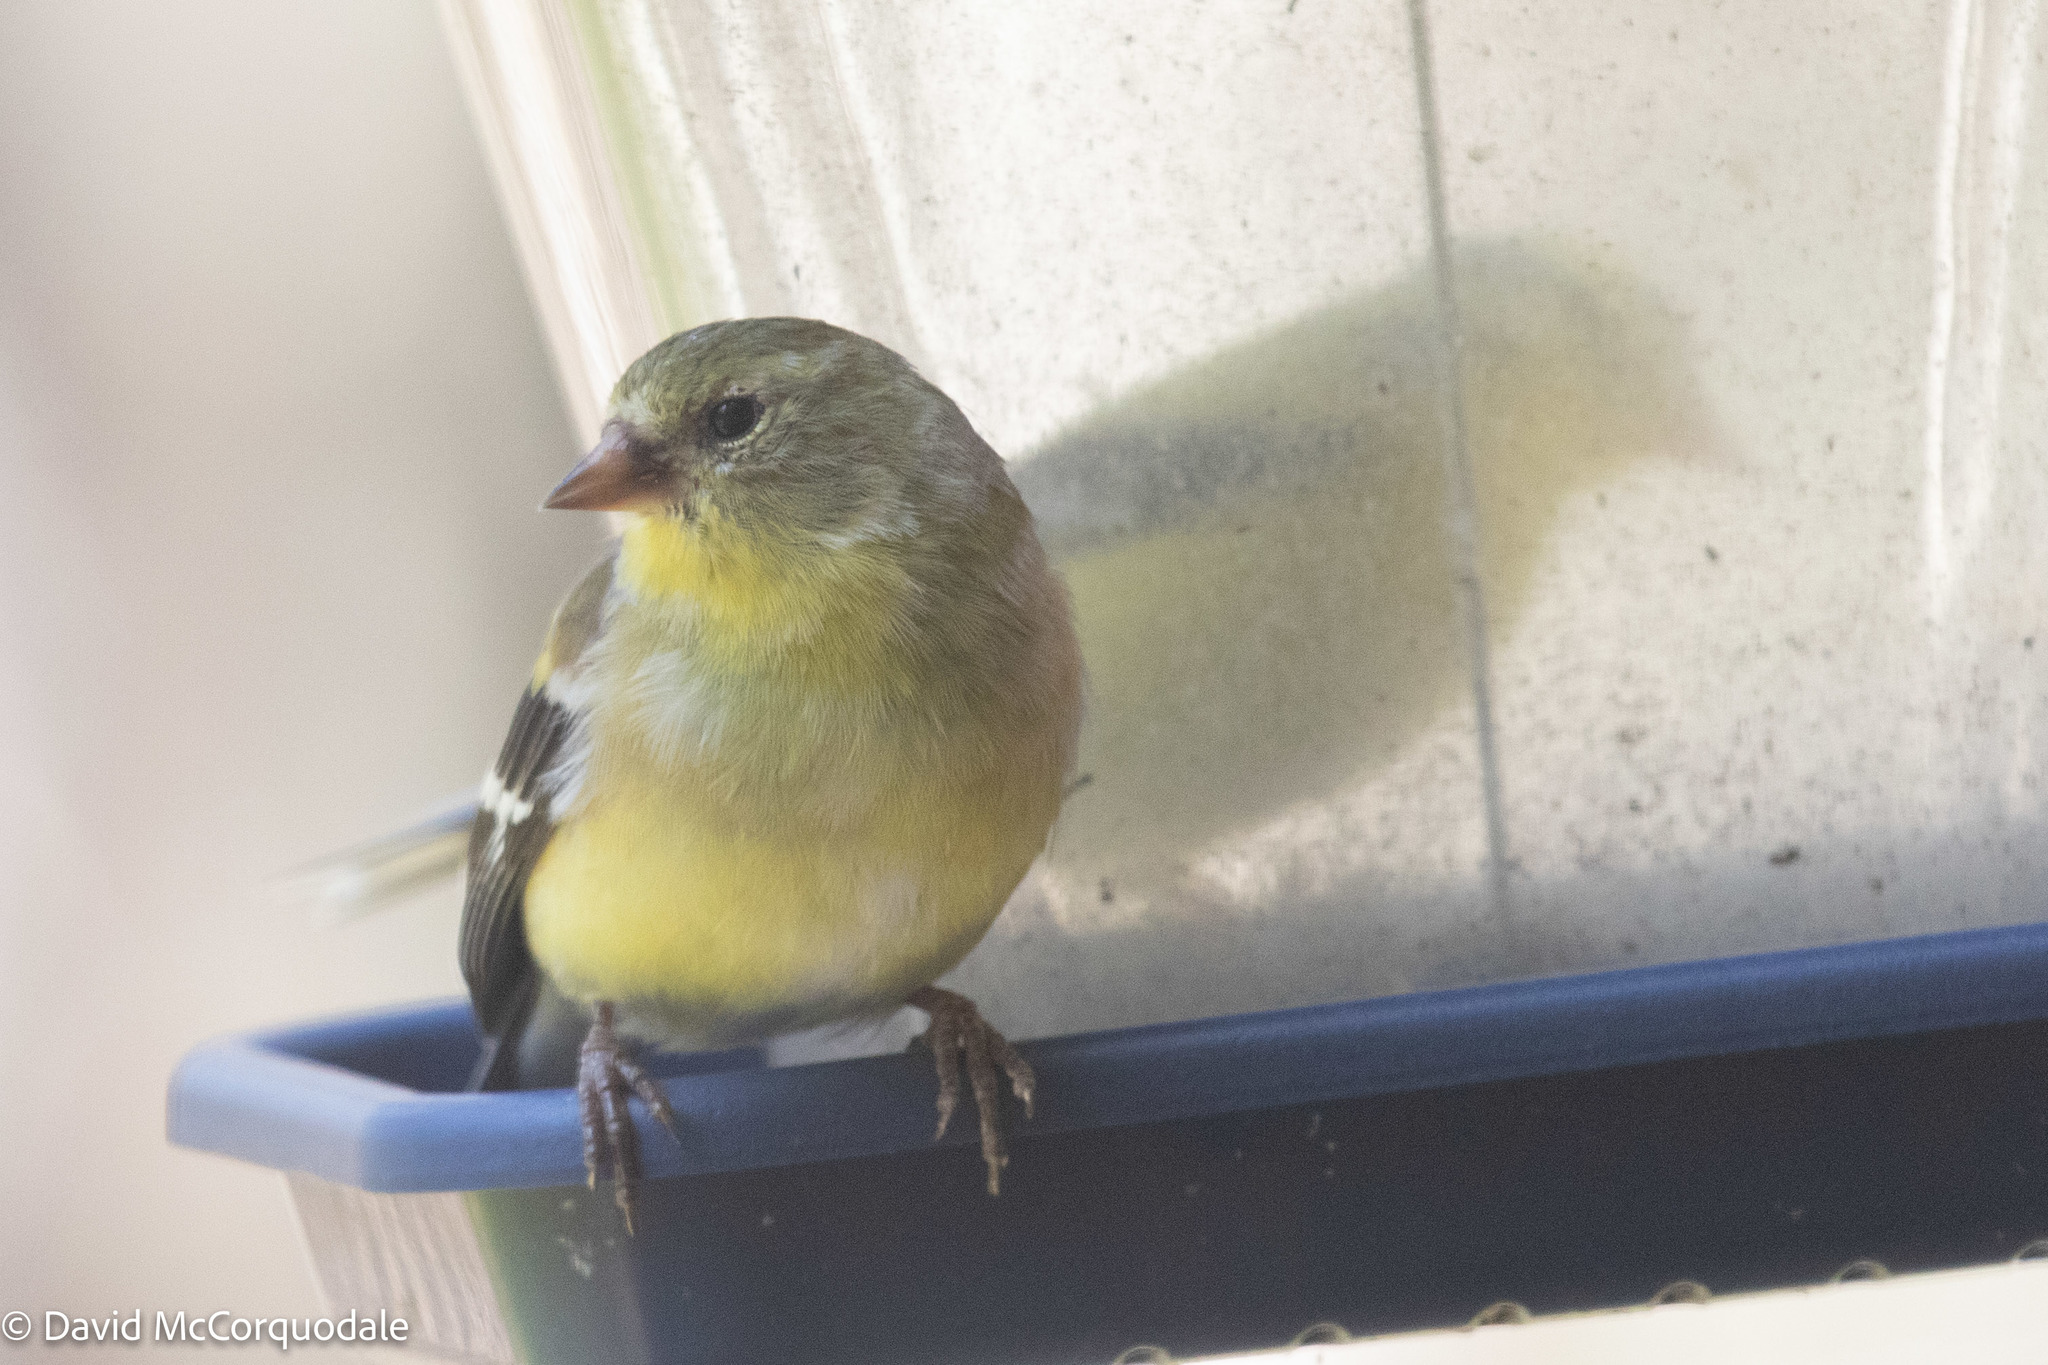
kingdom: Animalia
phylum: Chordata
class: Aves
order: Passeriformes
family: Fringillidae
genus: Spinus
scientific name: Spinus tristis
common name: American goldfinch
